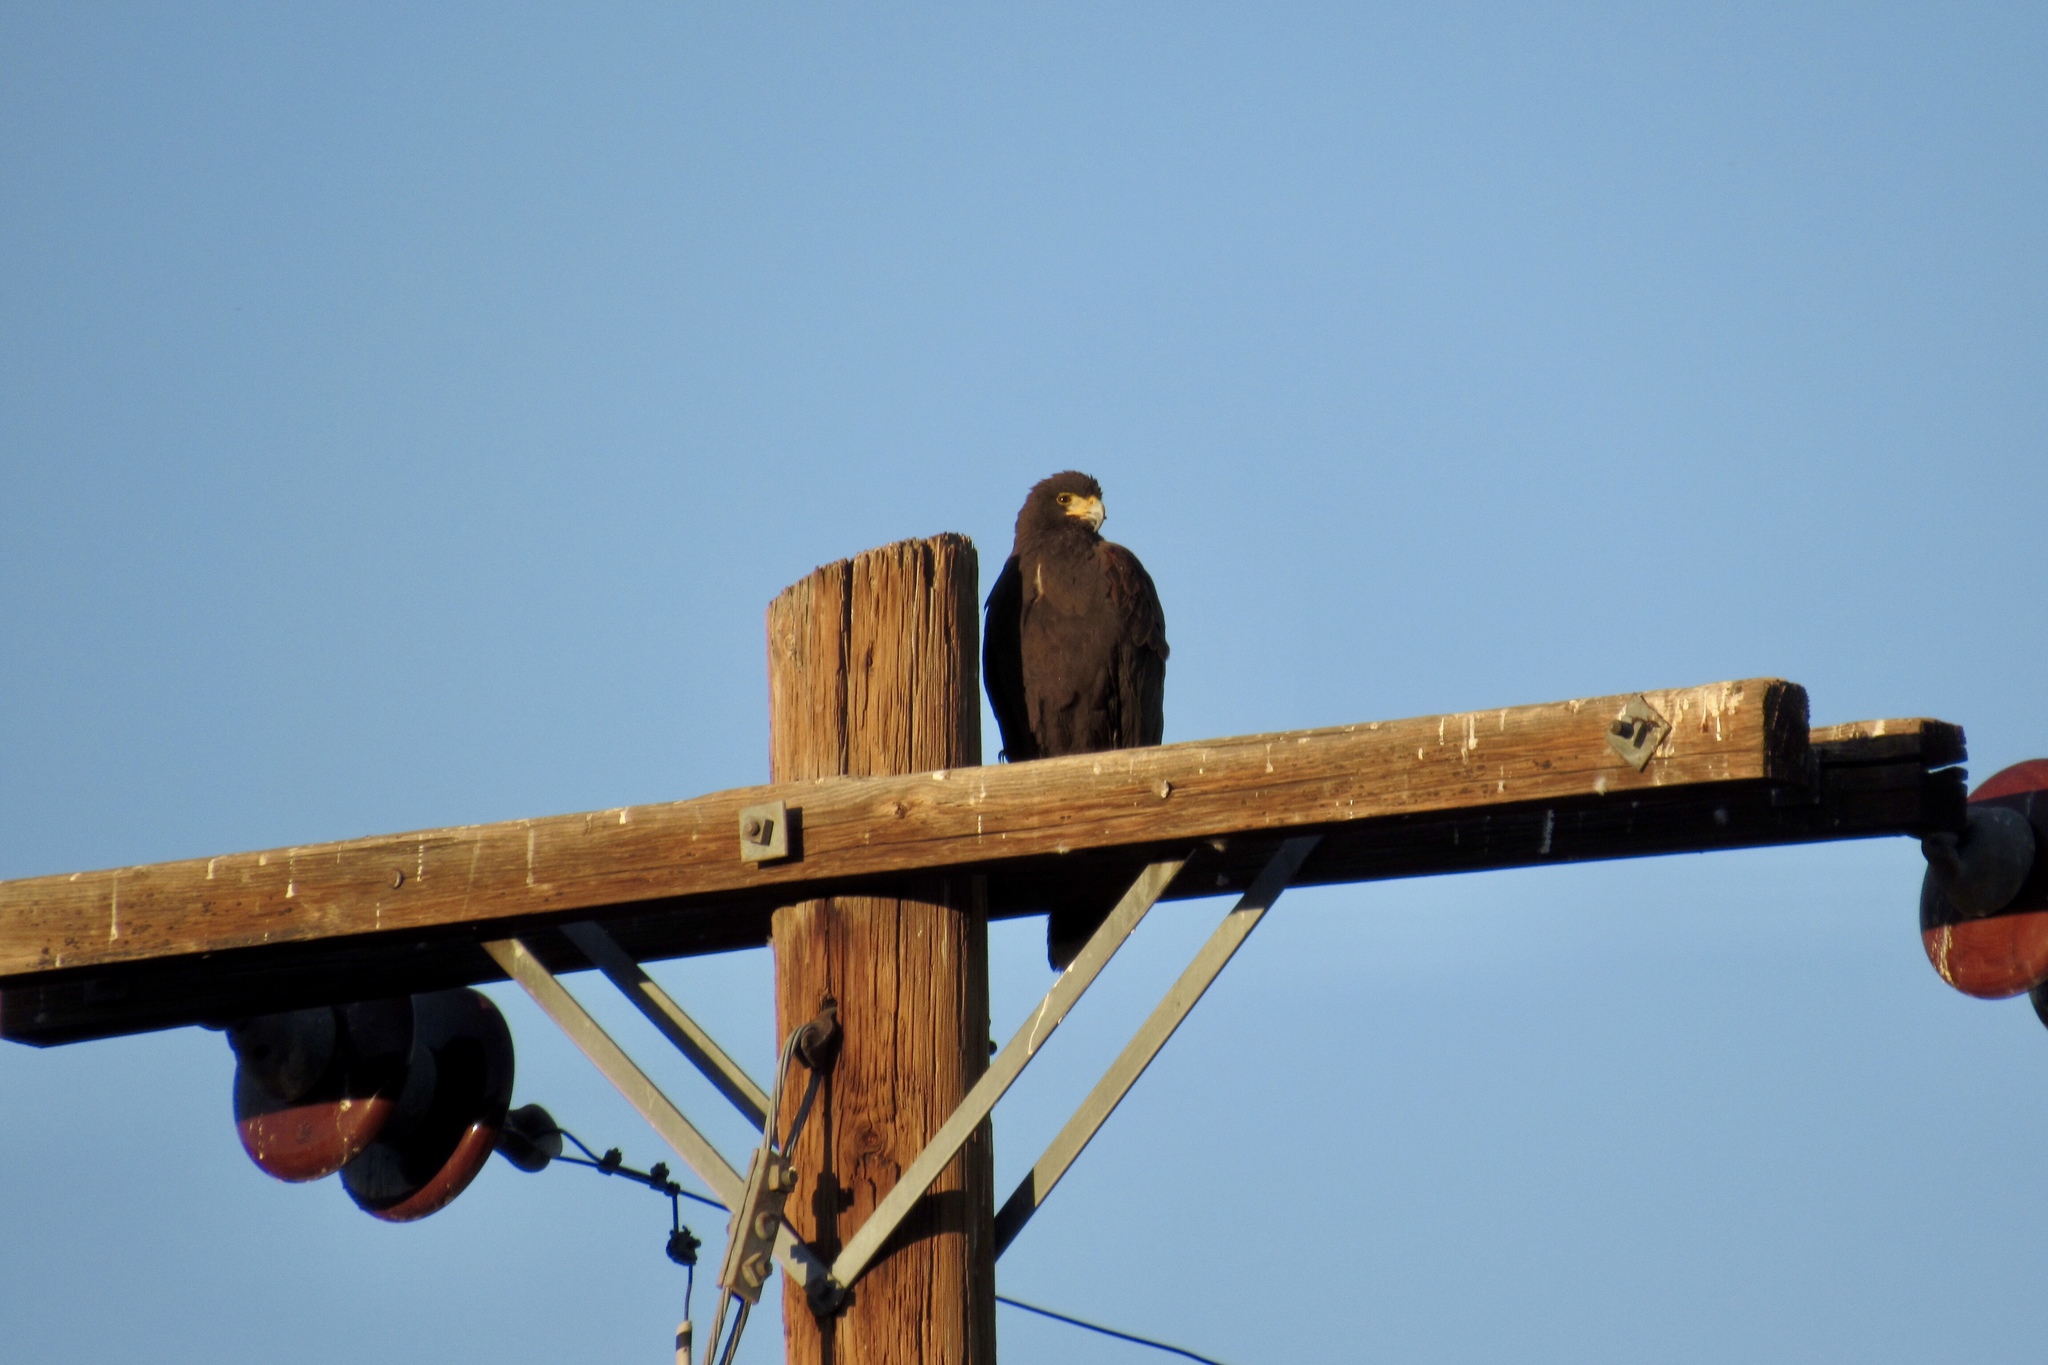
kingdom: Animalia
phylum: Chordata
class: Aves
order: Accipitriformes
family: Accipitridae
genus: Parabuteo
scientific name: Parabuteo unicinctus
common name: Harris's hawk
